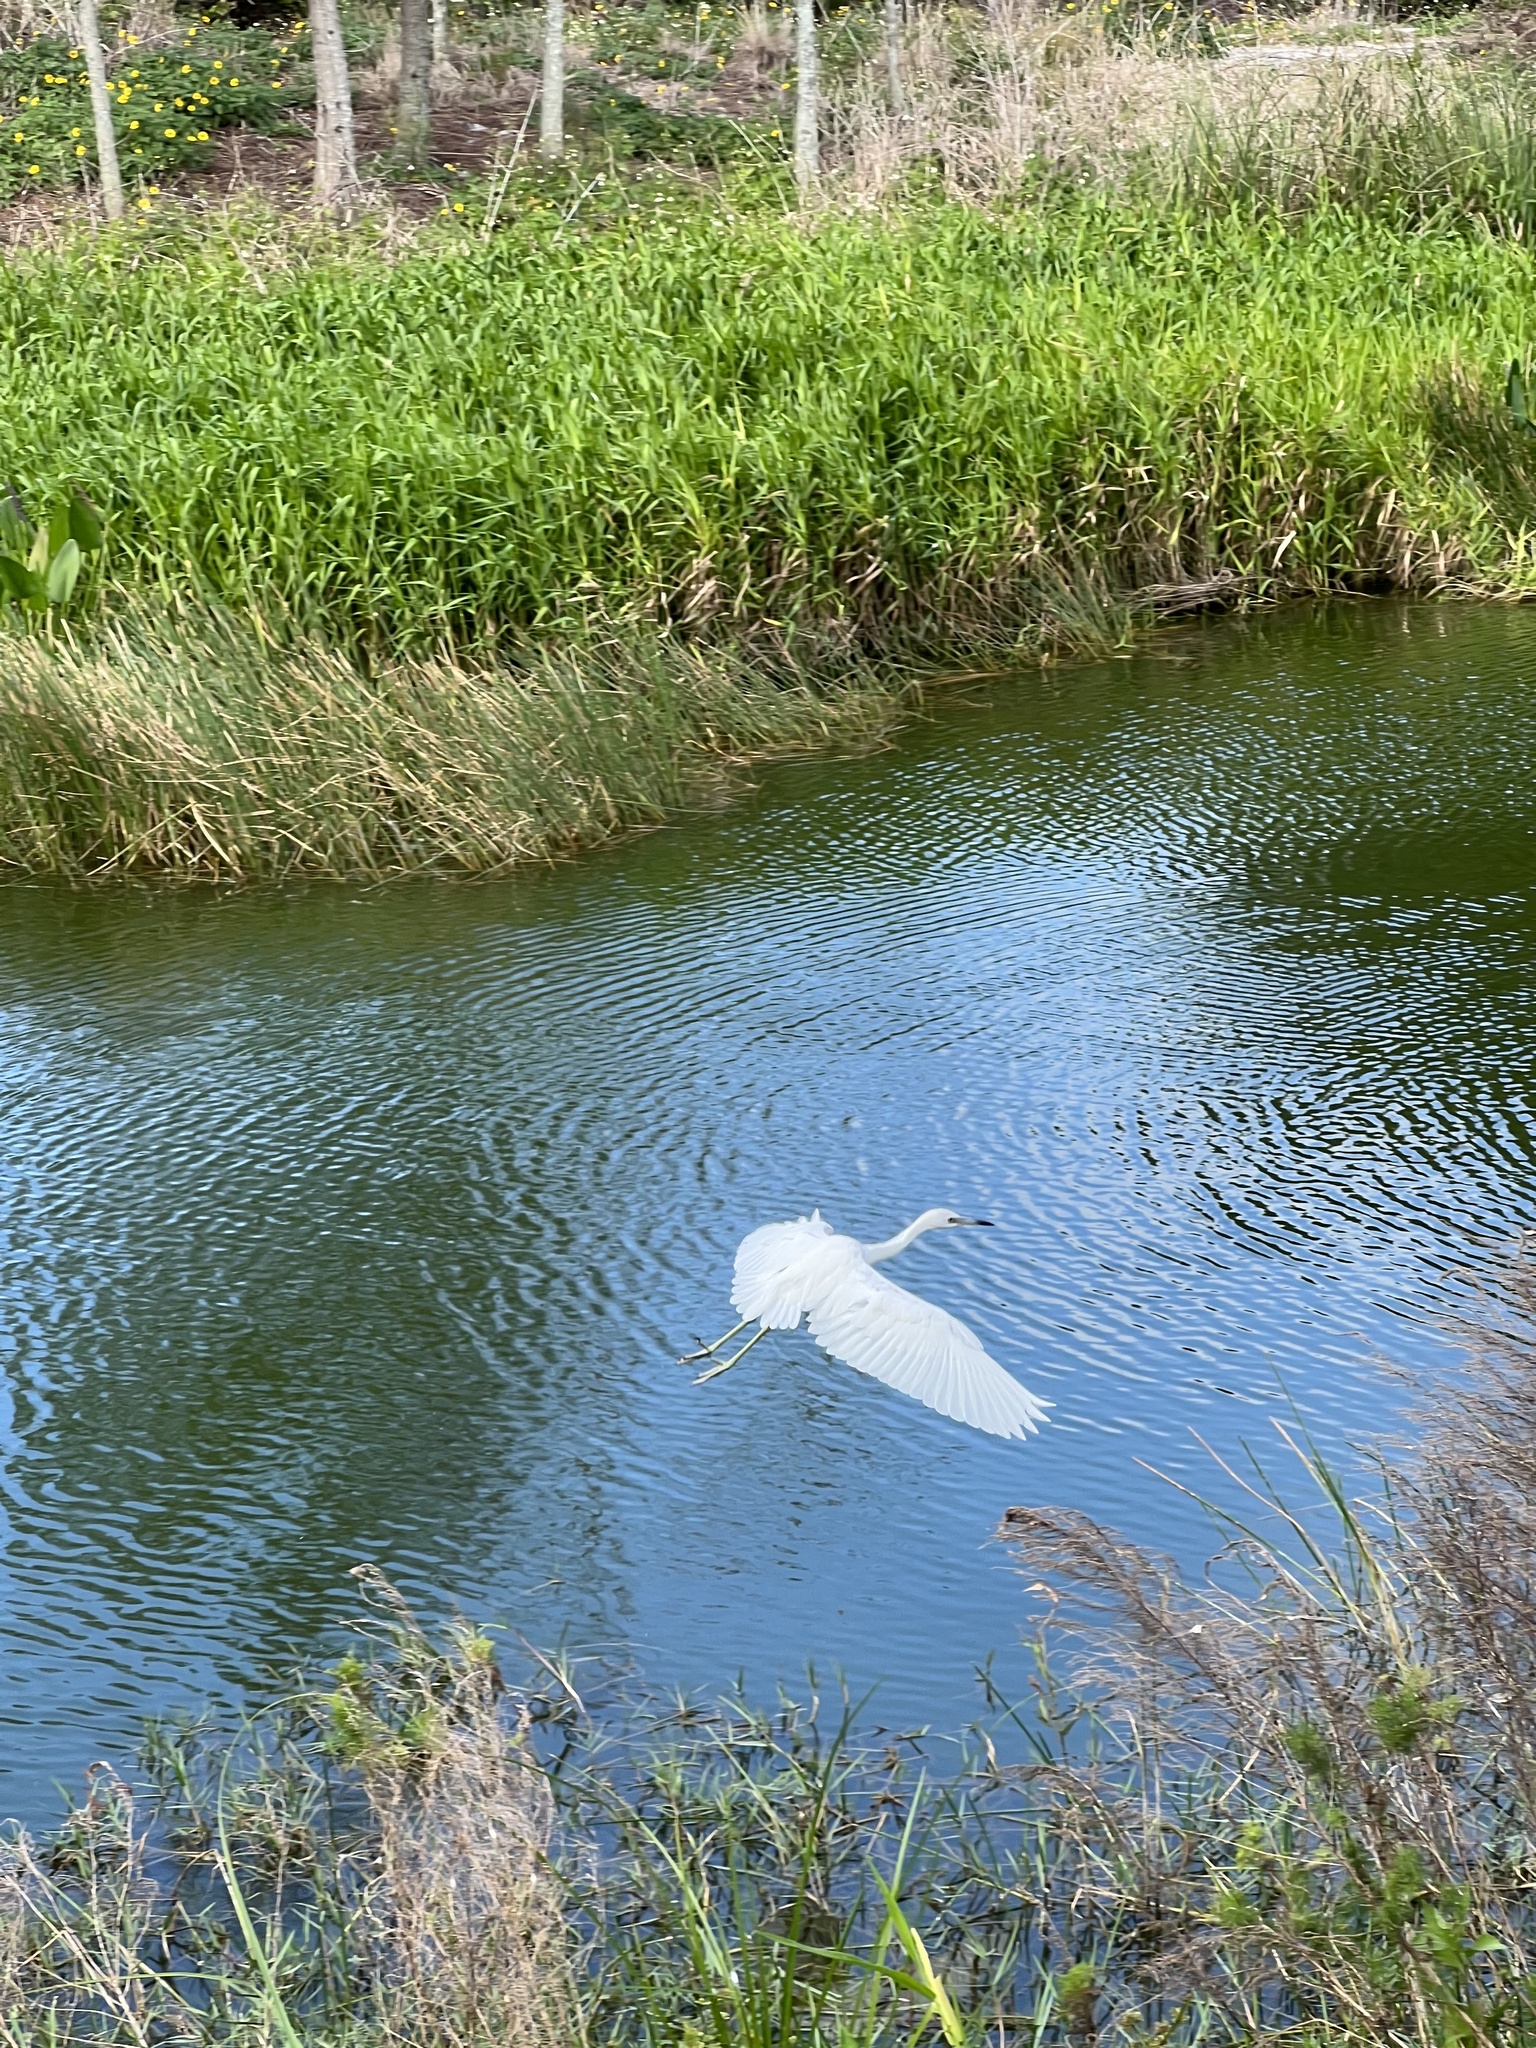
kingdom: Animalia
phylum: Chordata
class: Aves
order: Pelecaniformes
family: Ardeidae
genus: Egretta
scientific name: Egretta caerulea
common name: Little blue heron
